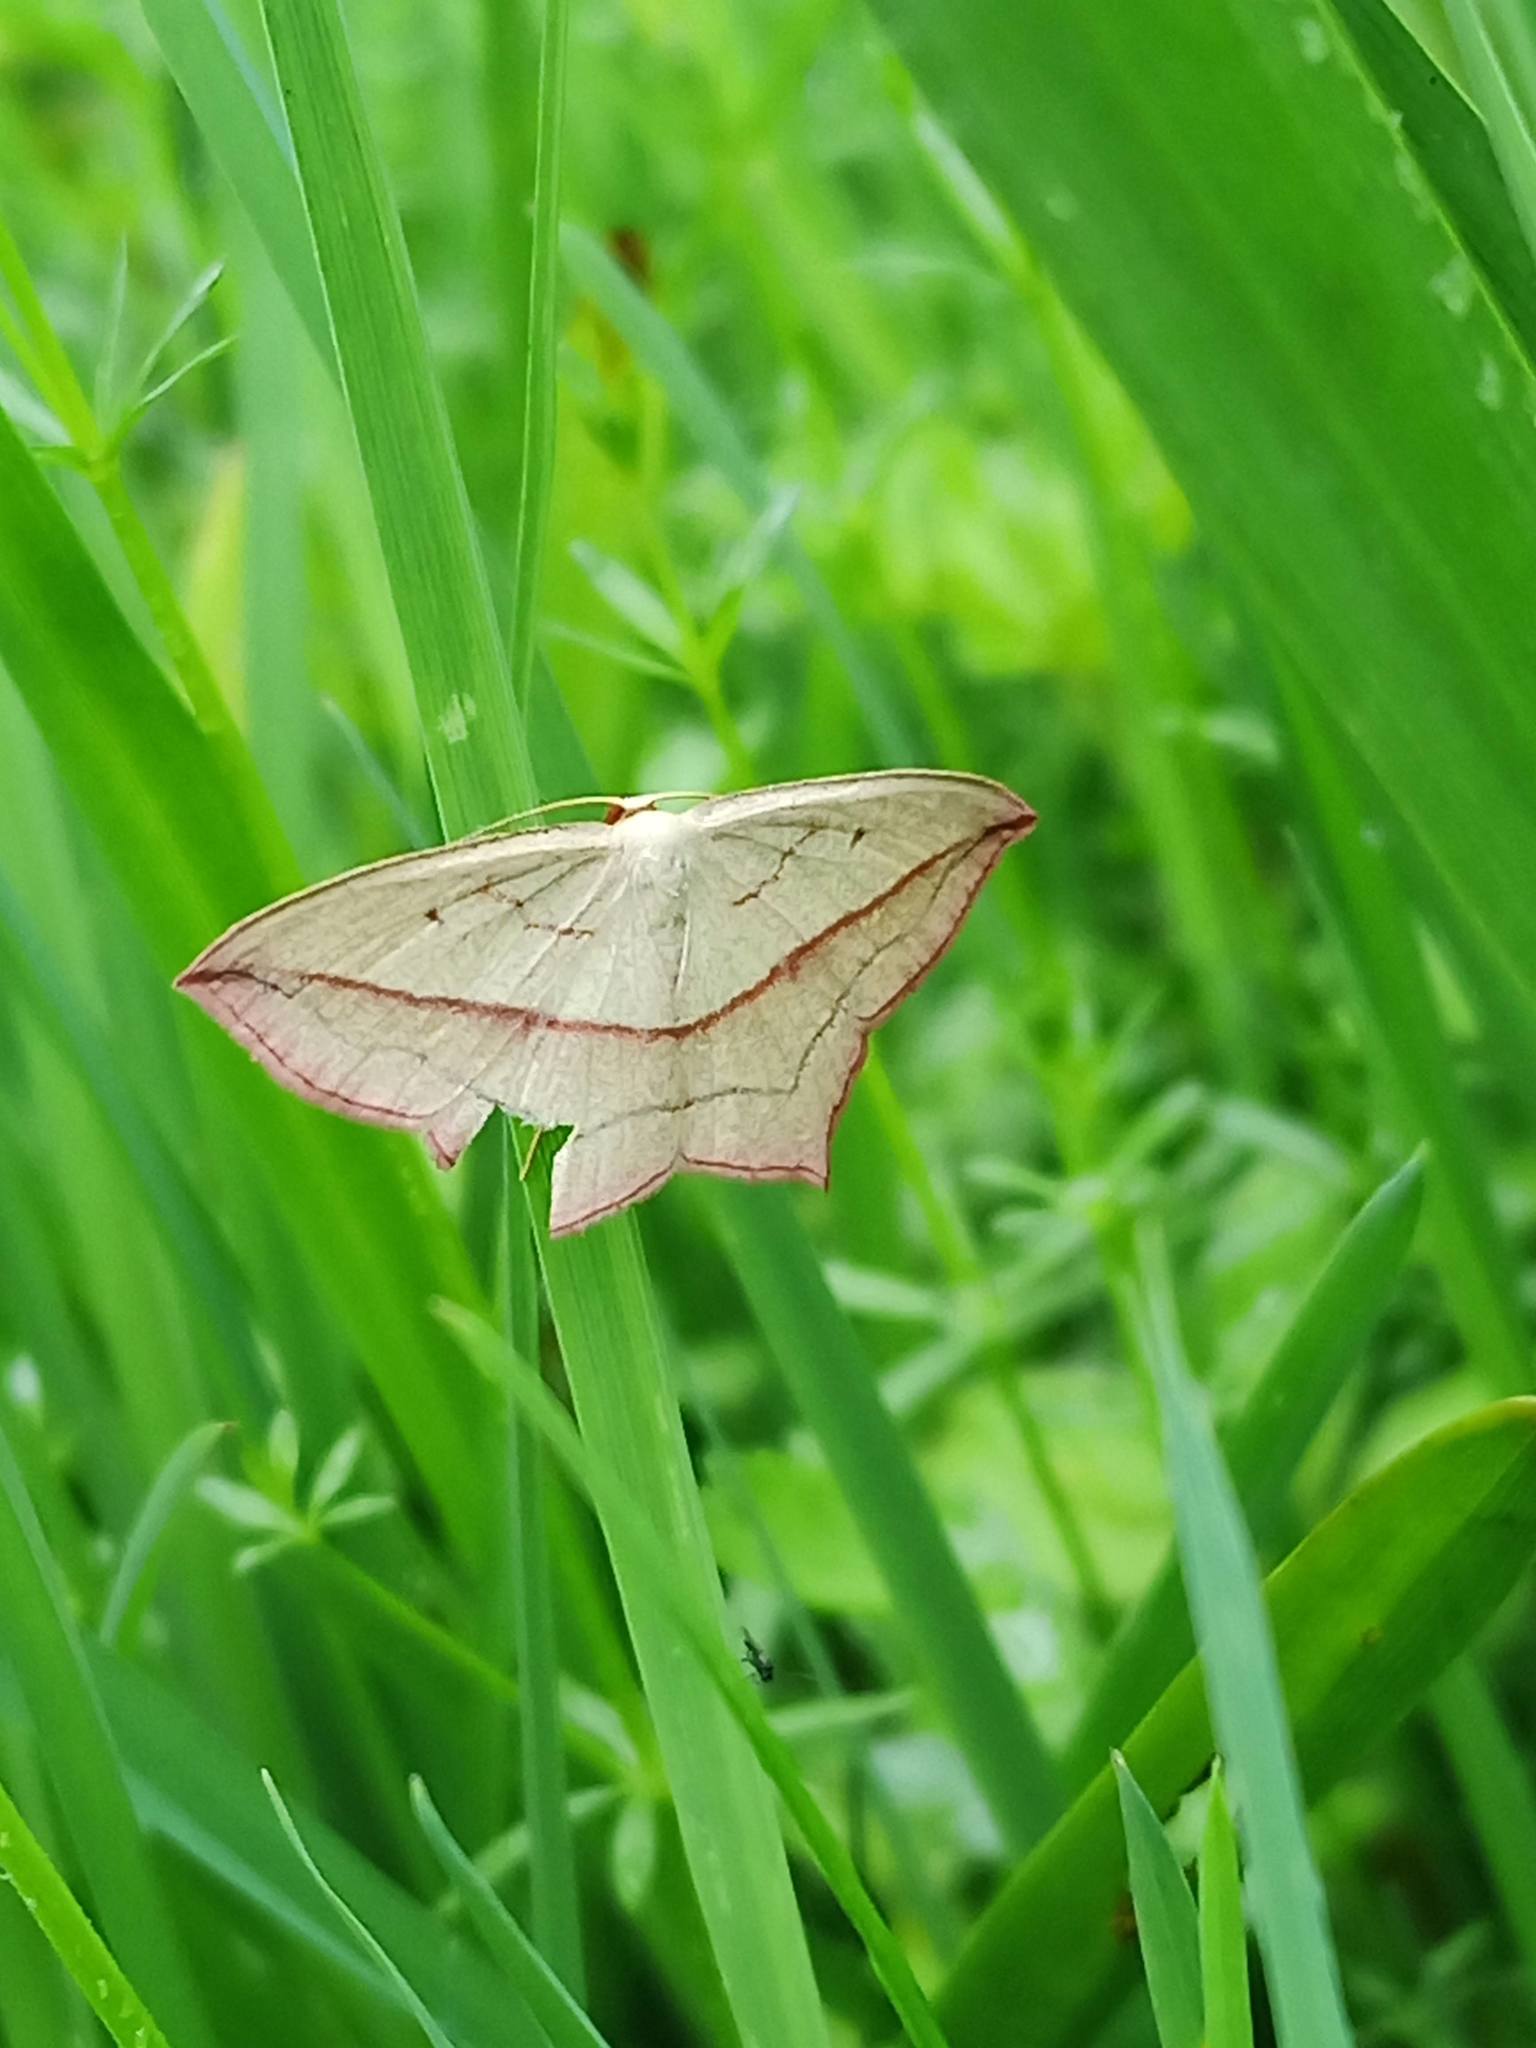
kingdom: Animalia
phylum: Arthropoda
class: Insecta
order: Lepidoptera
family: Geometridae
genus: Timandra
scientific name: Timandra comae
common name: Blood-vein
